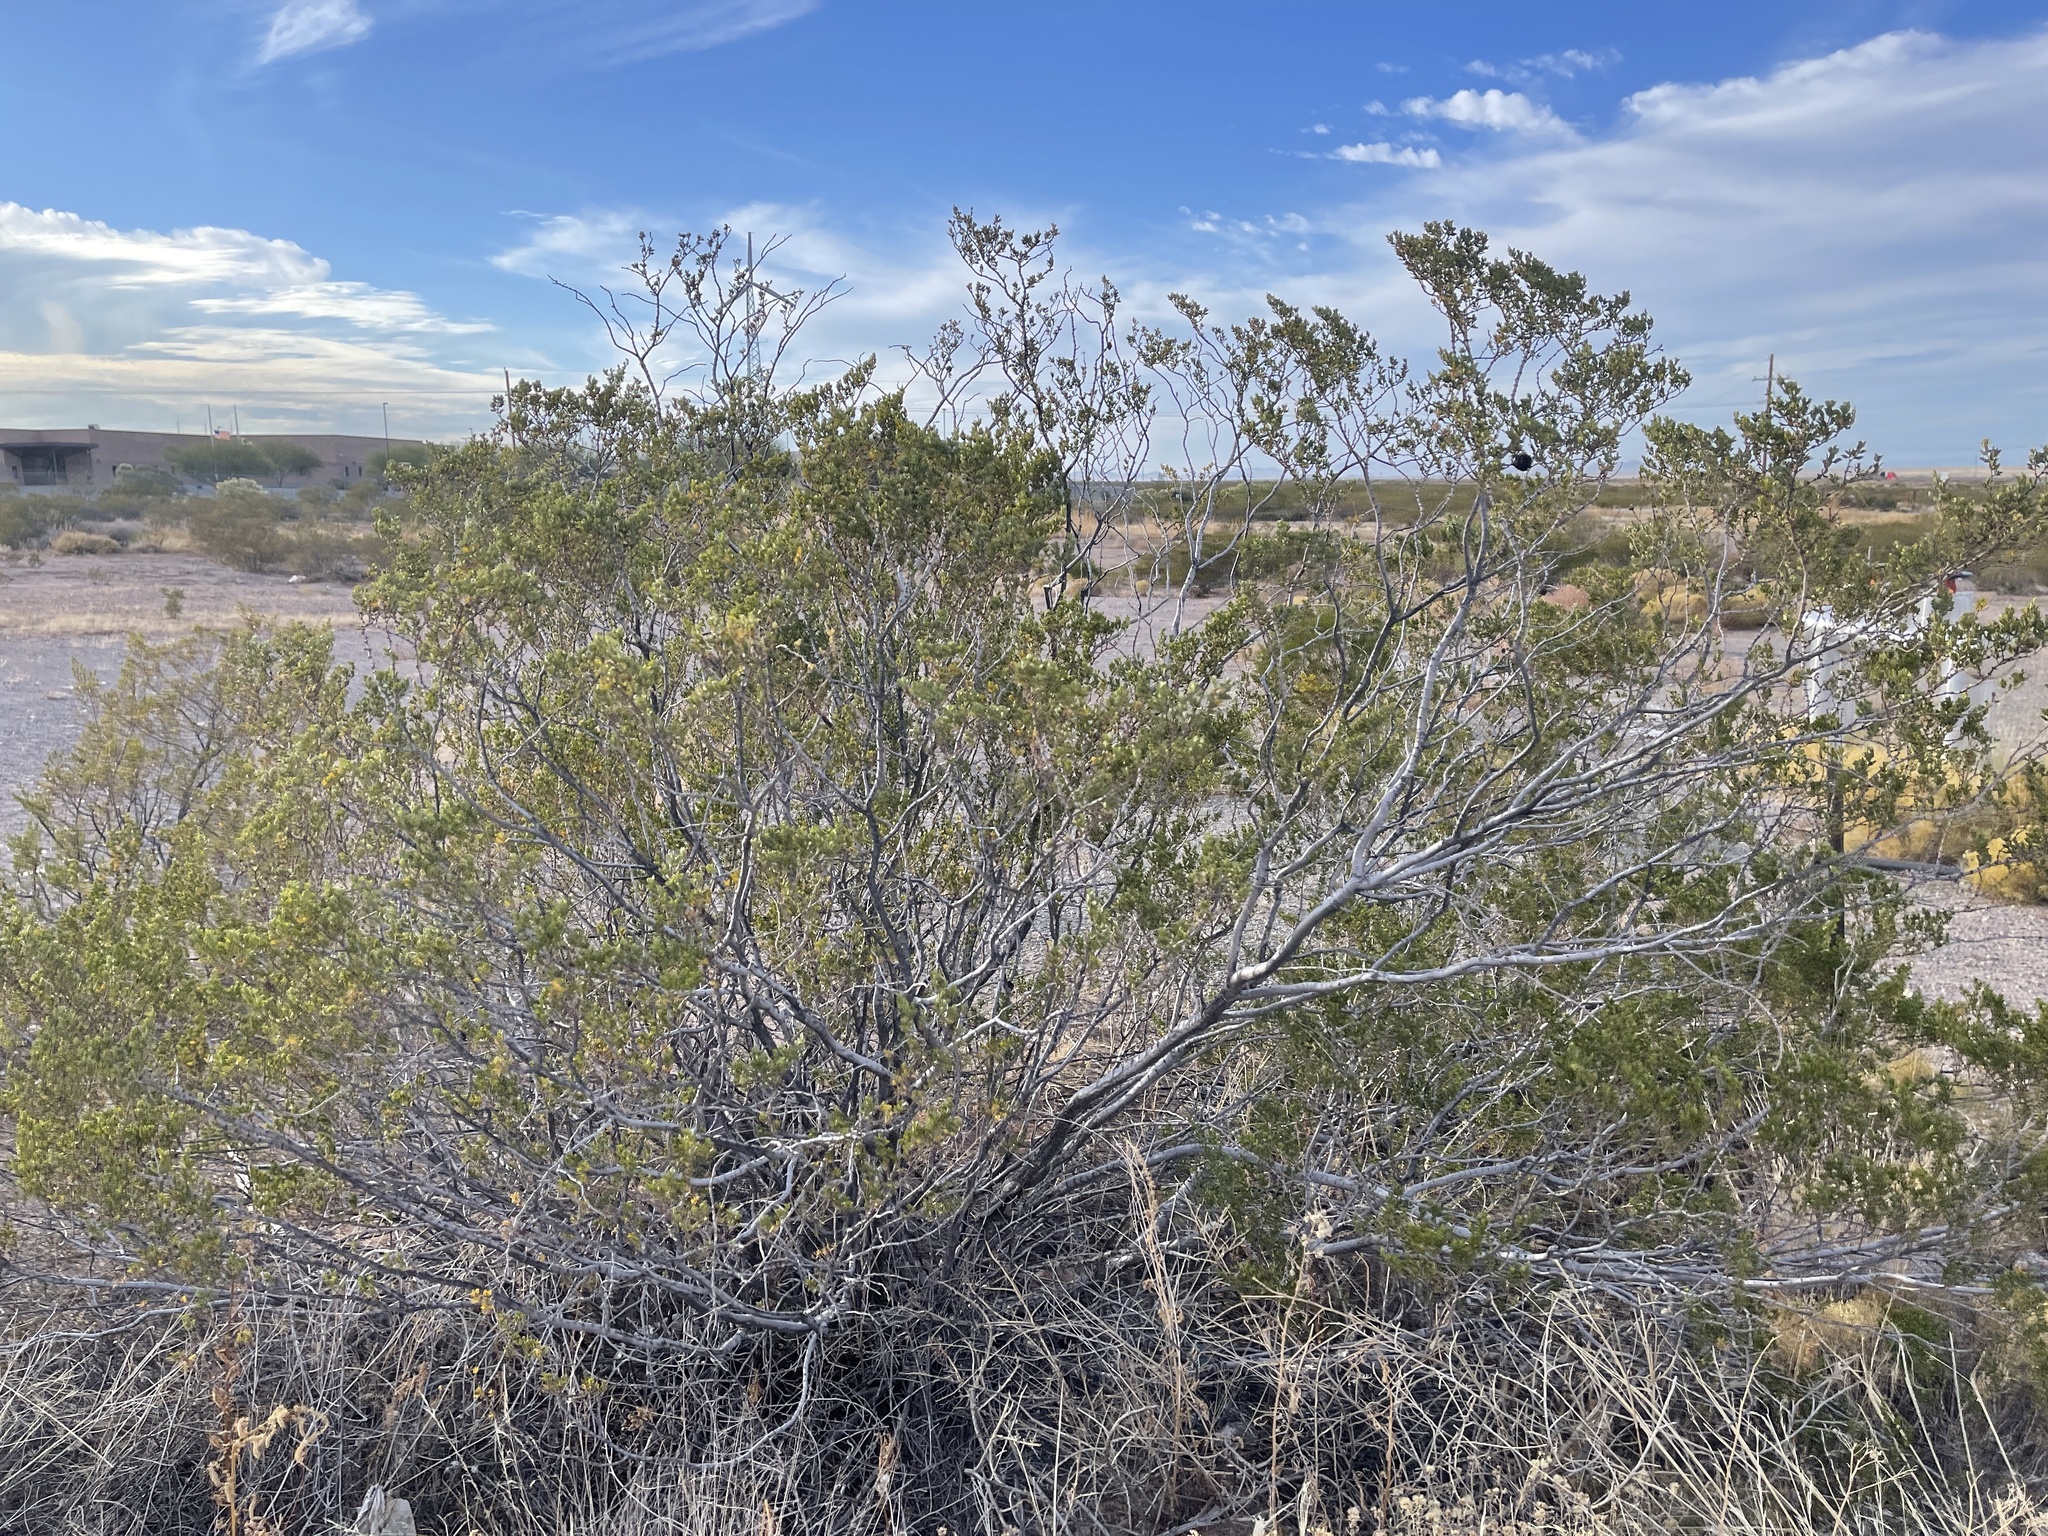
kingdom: Plantae
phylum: Tracheophyta
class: Magnoliopsida
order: Zygophyllales
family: Zygophyllaceae
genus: Larrea
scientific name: Larrea tridentata
